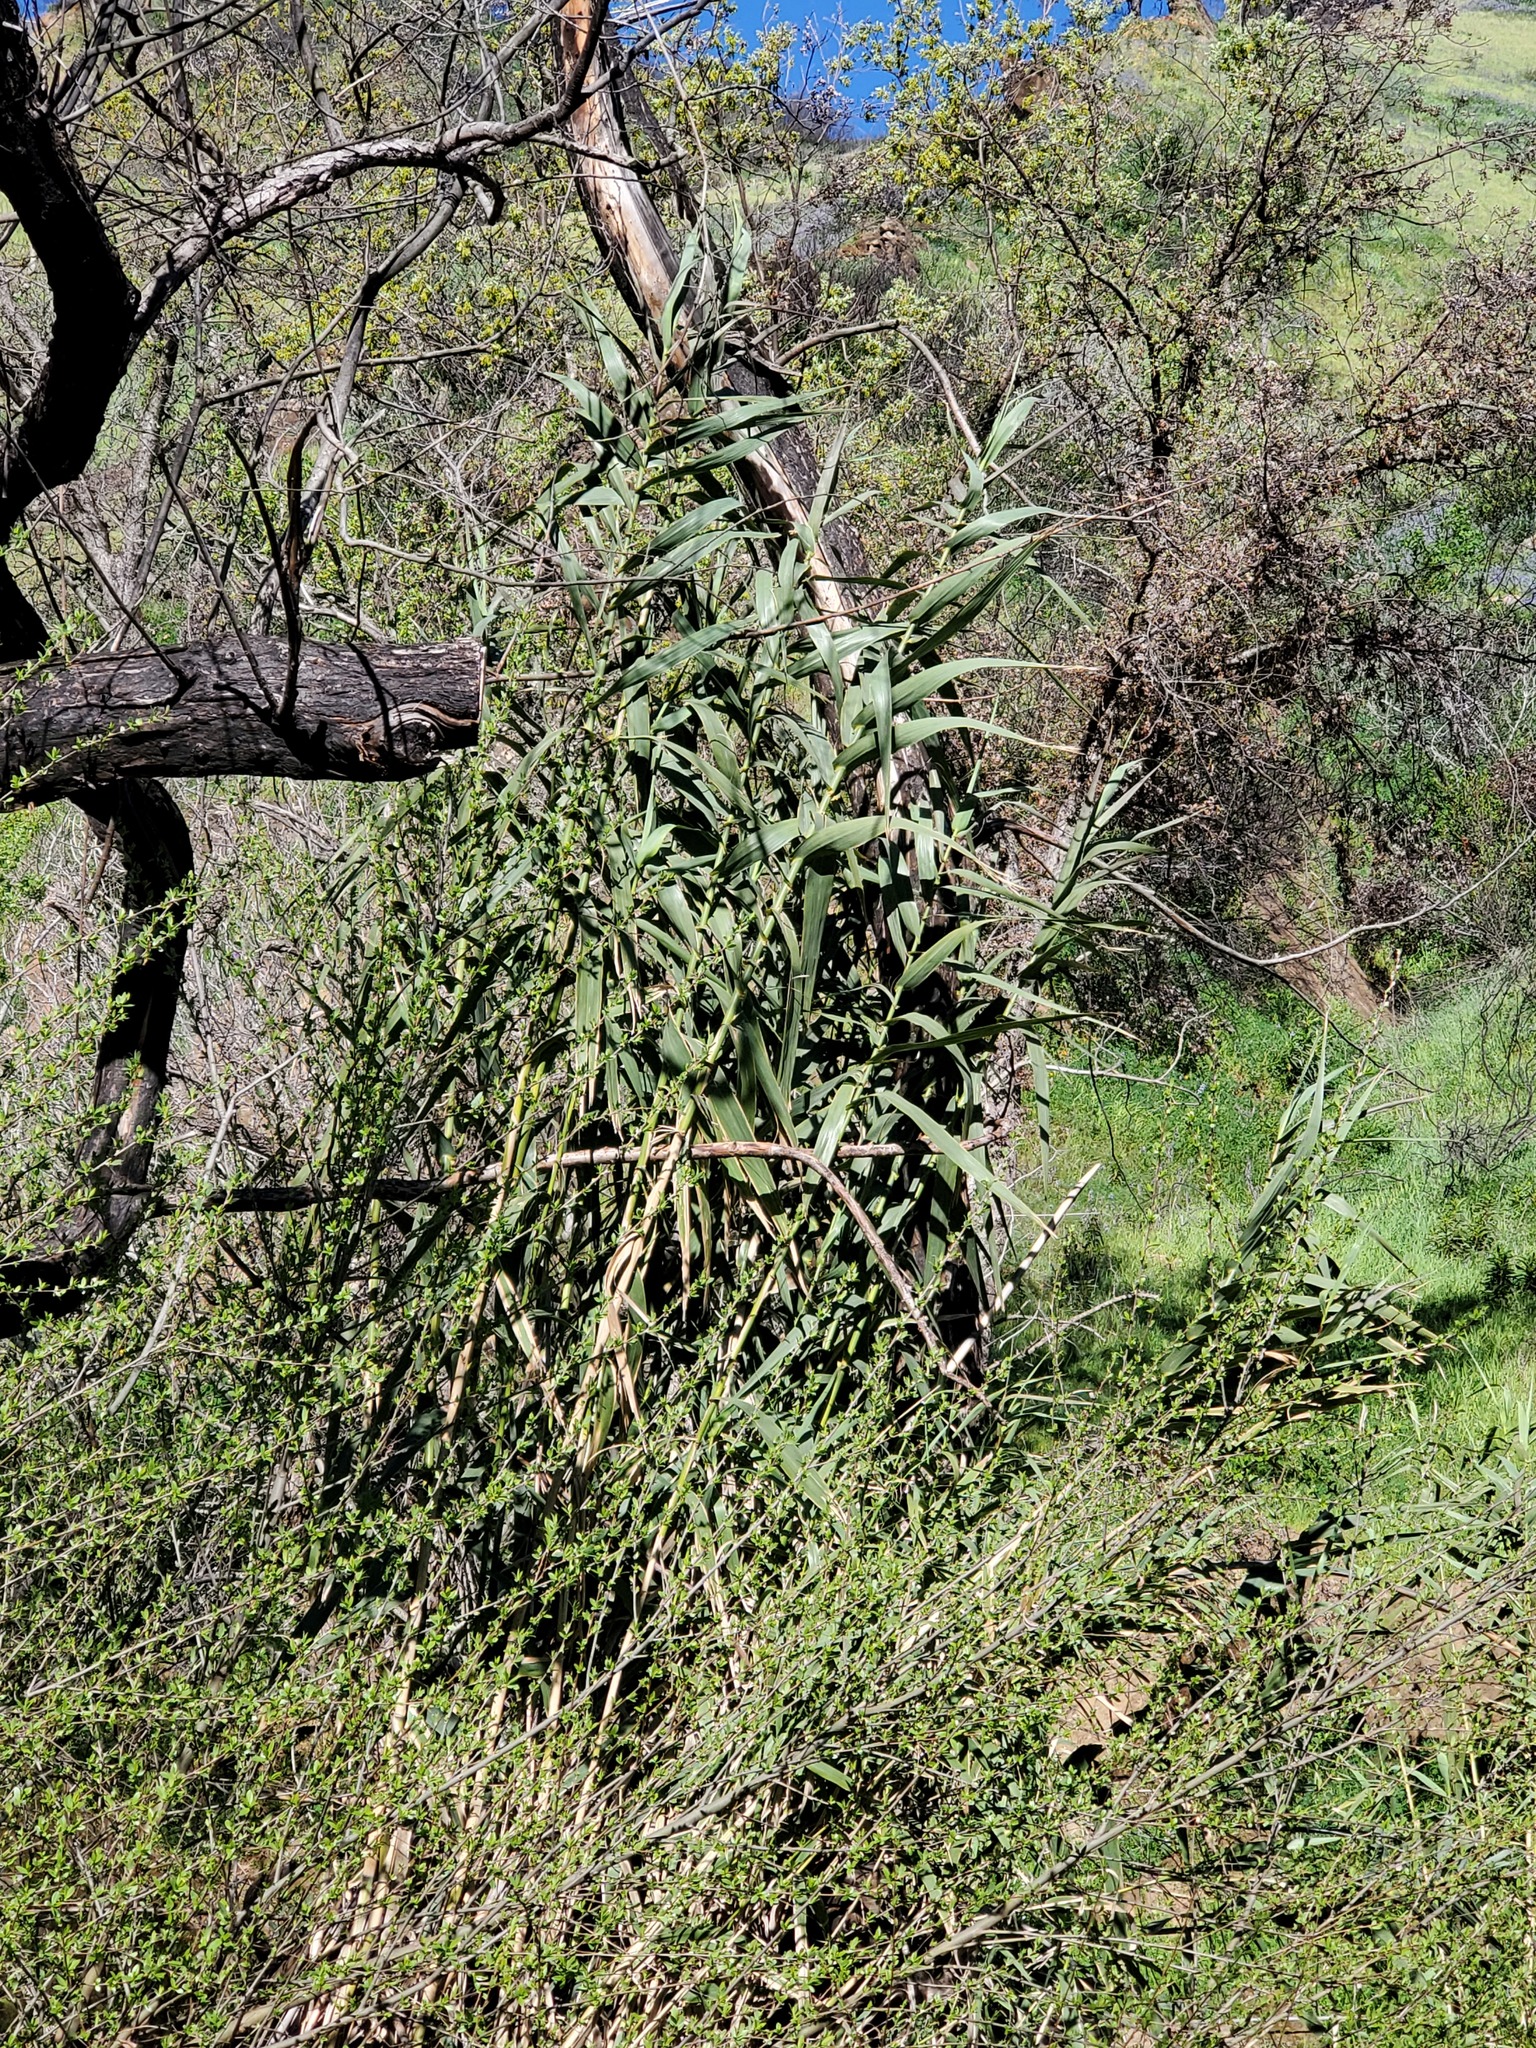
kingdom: Plantae
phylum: Tracheophyta
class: Liliopsida
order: Poales
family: Poaceae
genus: Arundo
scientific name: Arundo donax
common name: Giant reed
